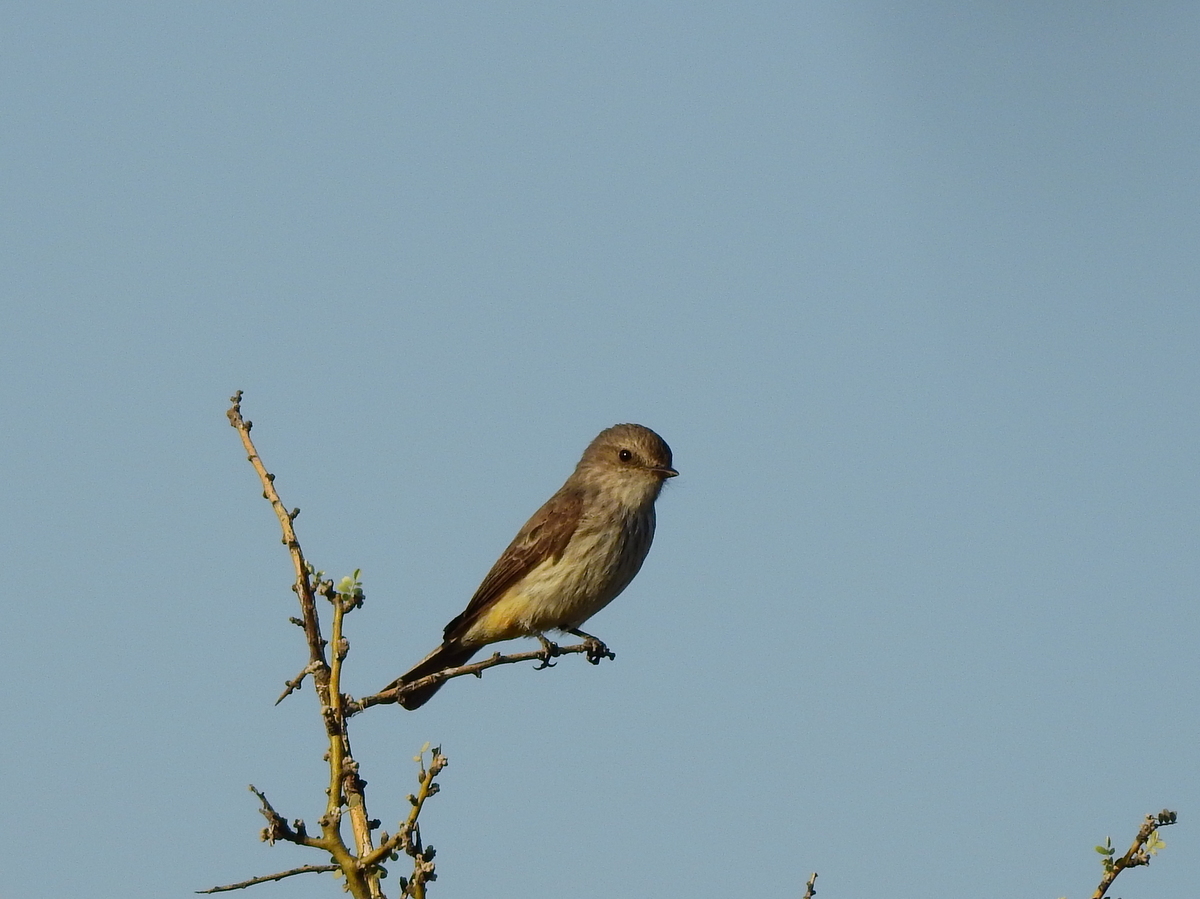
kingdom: Animalia
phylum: Chordata
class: Aves
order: Passeriformes
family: Tyrannidae
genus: Pyrocephalus
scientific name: Pyrocephalus rubinus
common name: Vermilion flycatcher
